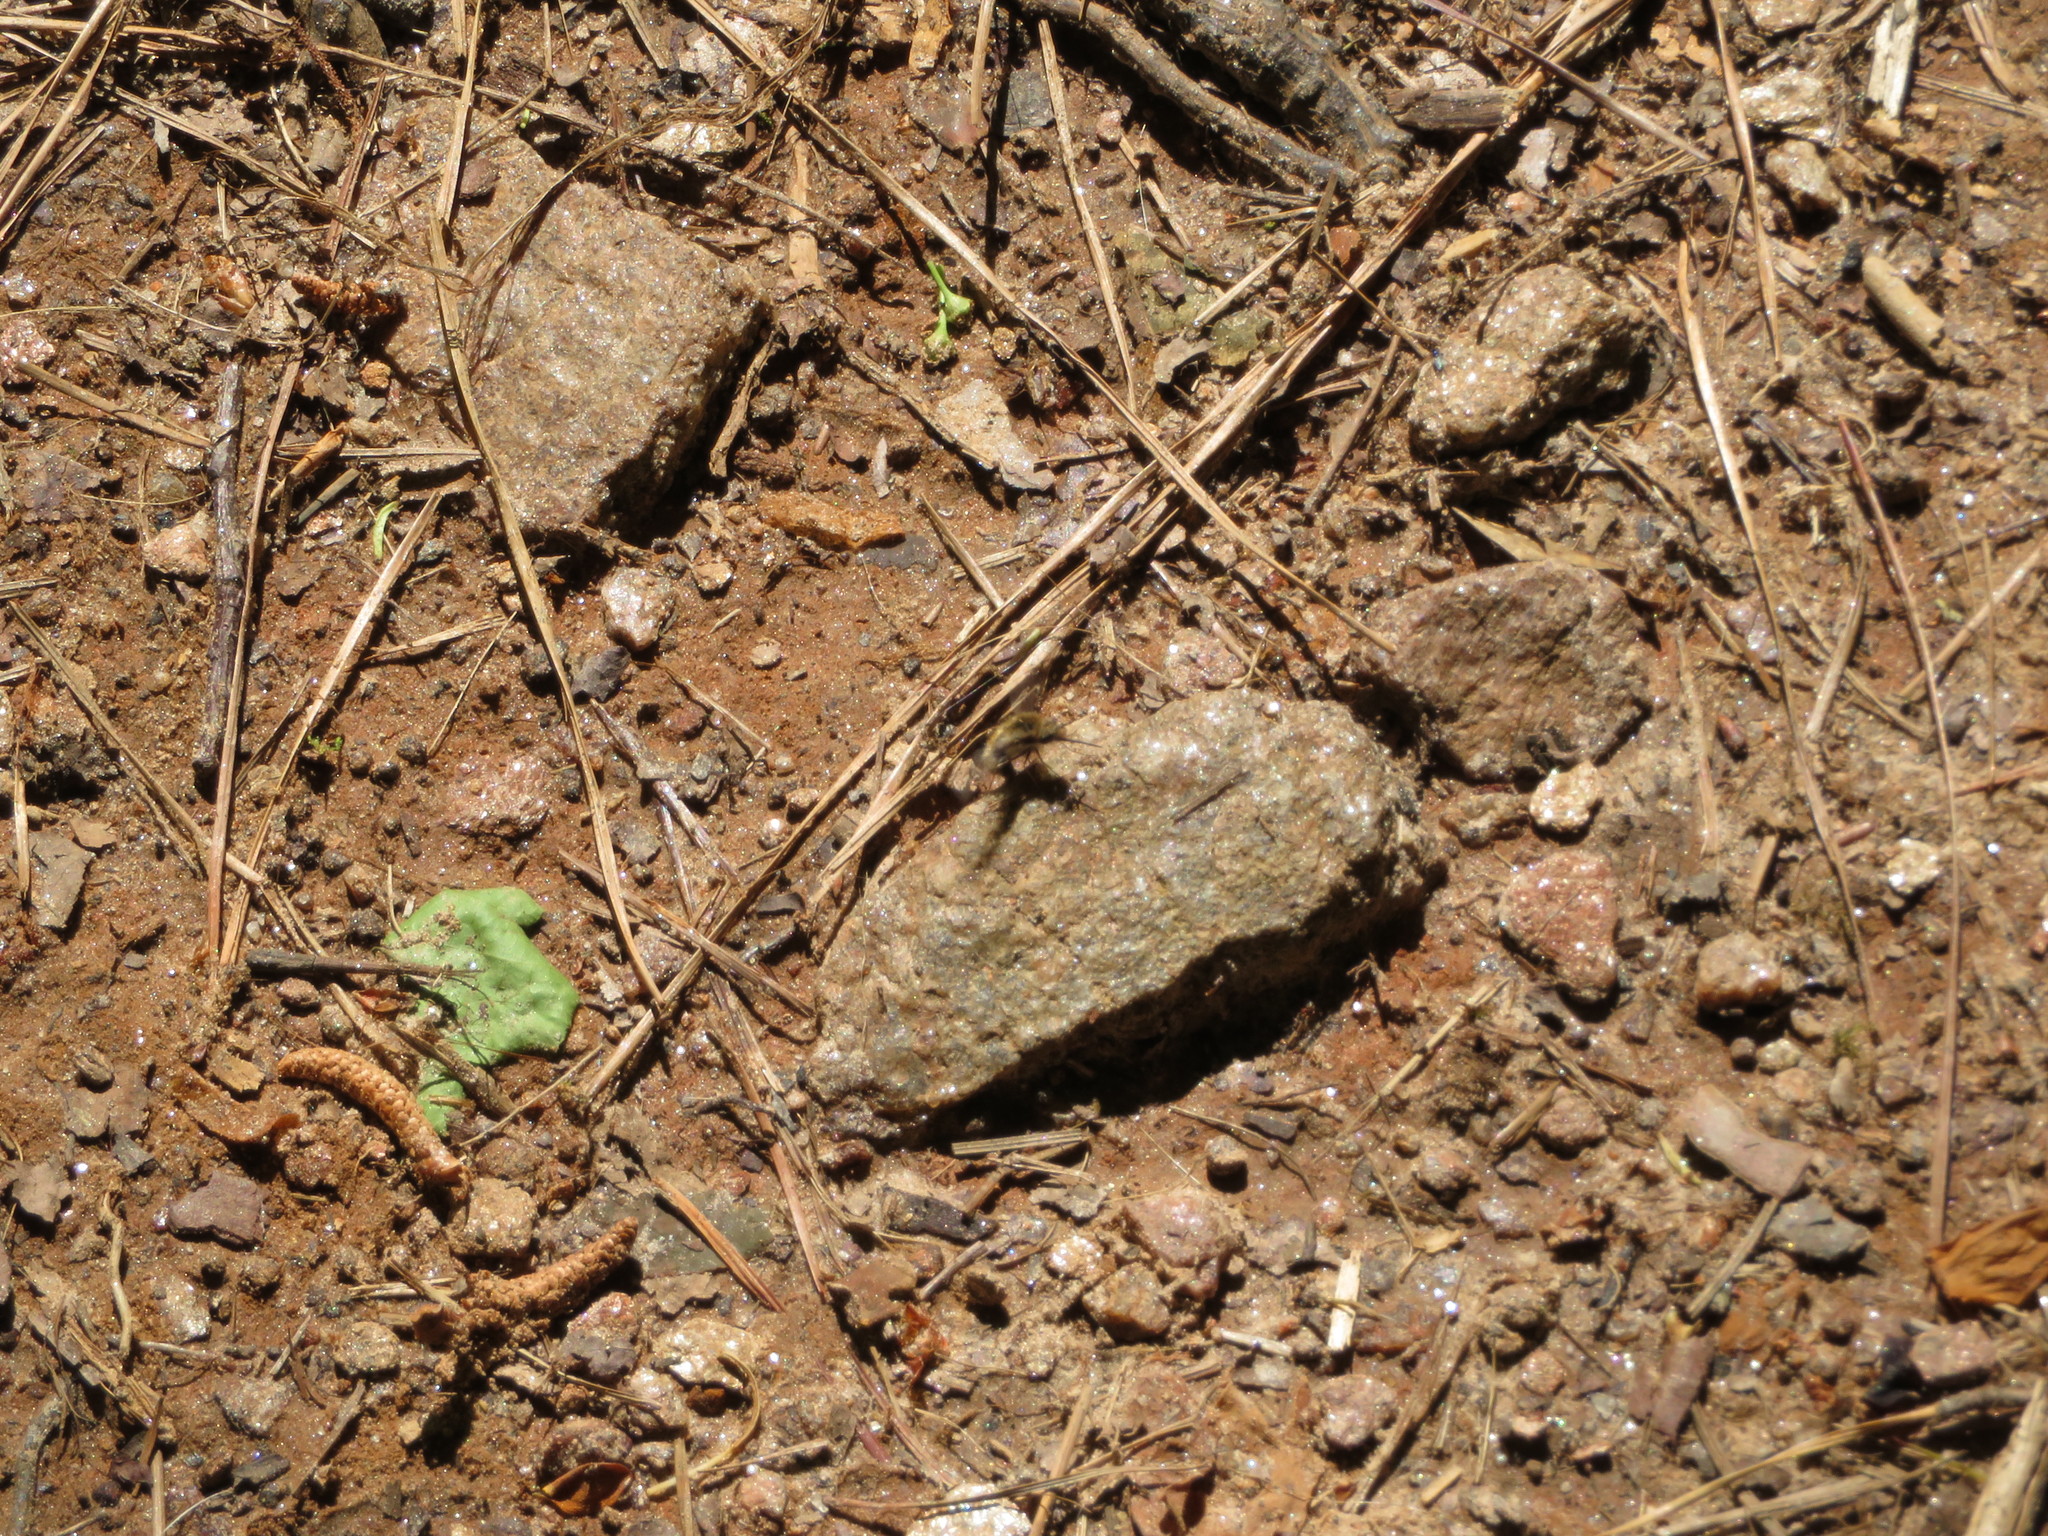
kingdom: Animalia
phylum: Arthropoda
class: Insecta
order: Diptera
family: Bombyliidae
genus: Bombylius
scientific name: Bombylius major
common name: Bee fly
